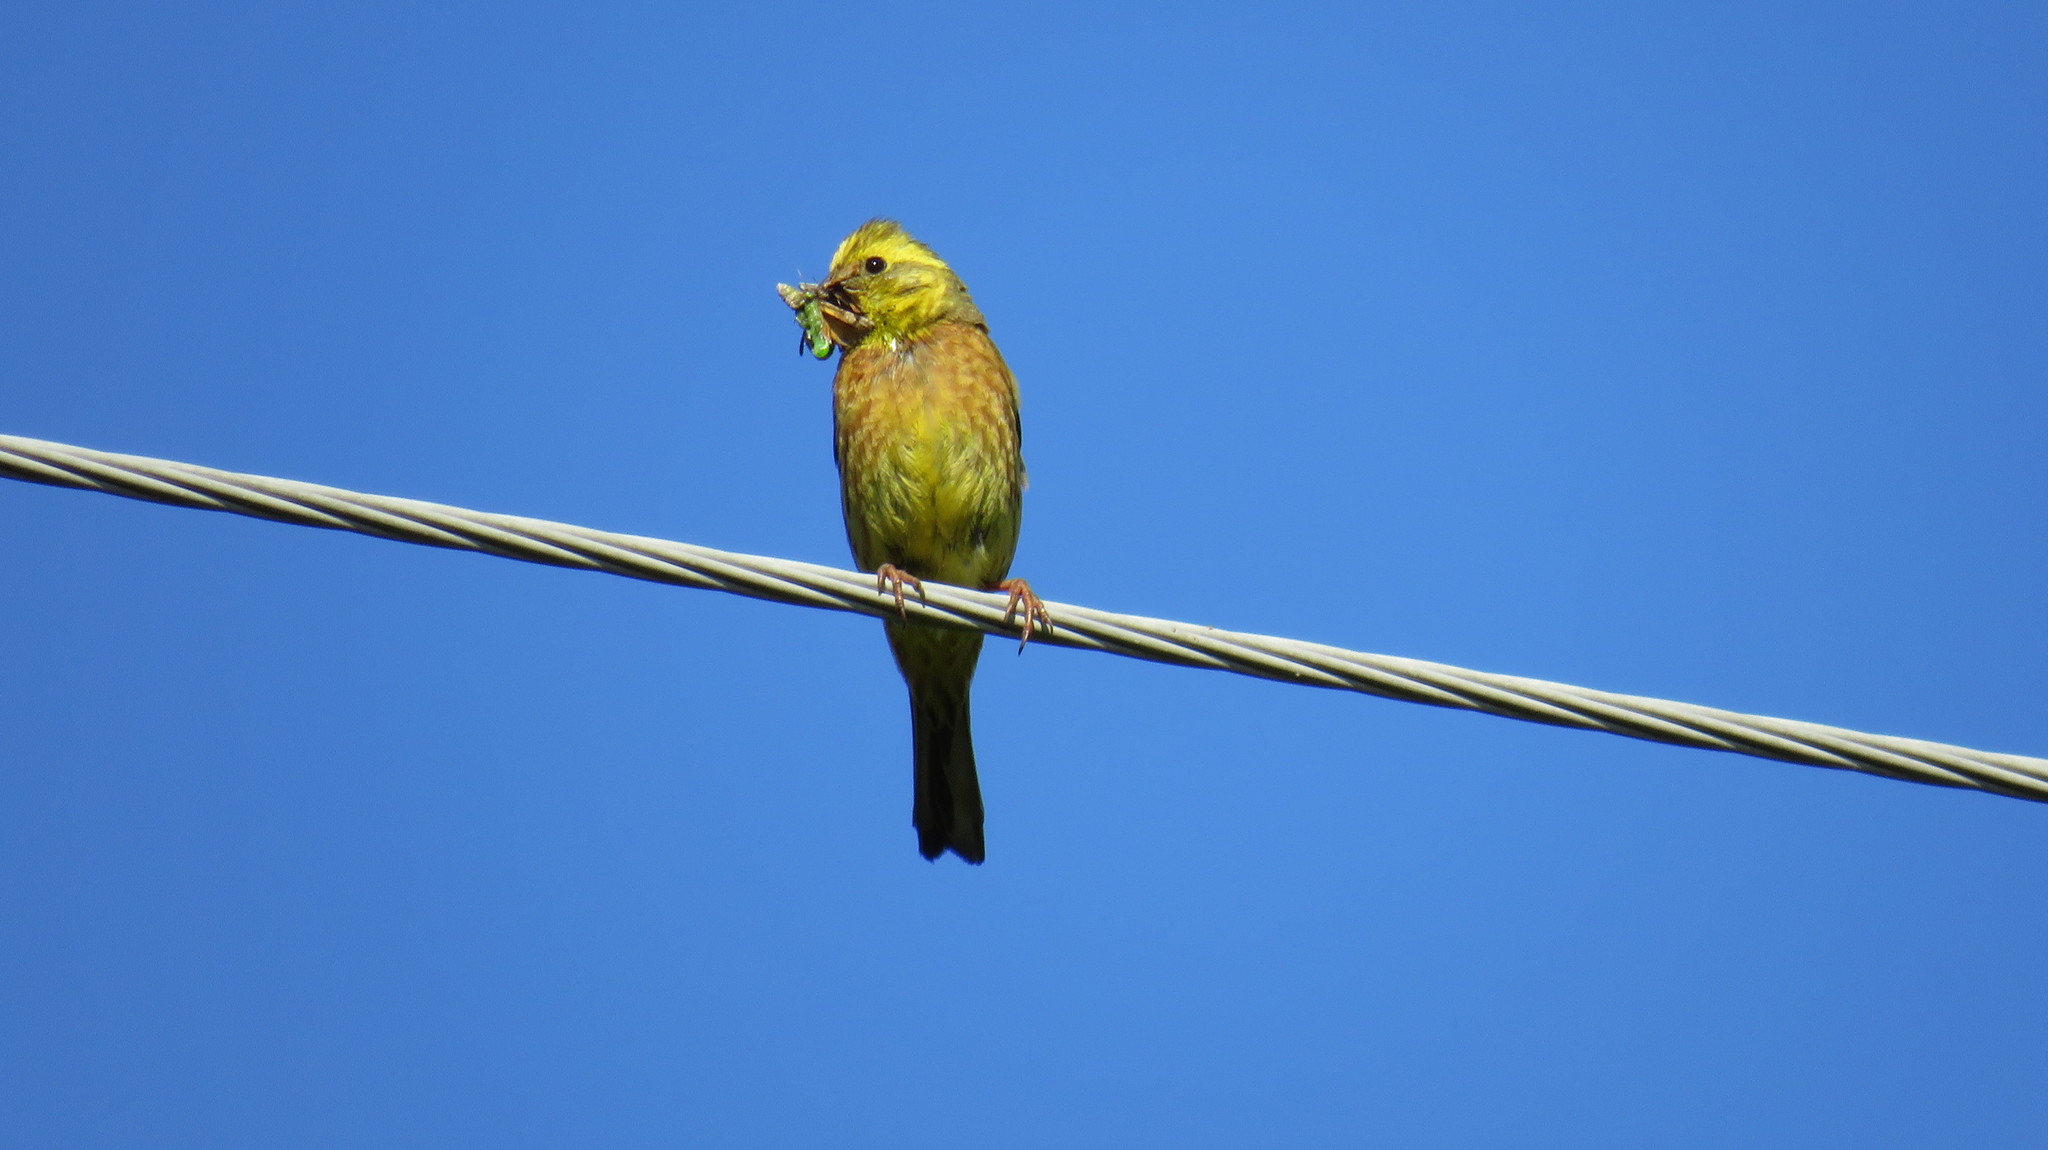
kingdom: Animalia
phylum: Chordata
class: Aves
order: Passeriformes
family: Emberizidae
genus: Emberiza
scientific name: Emberiza citrinella
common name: Yellowhammer
